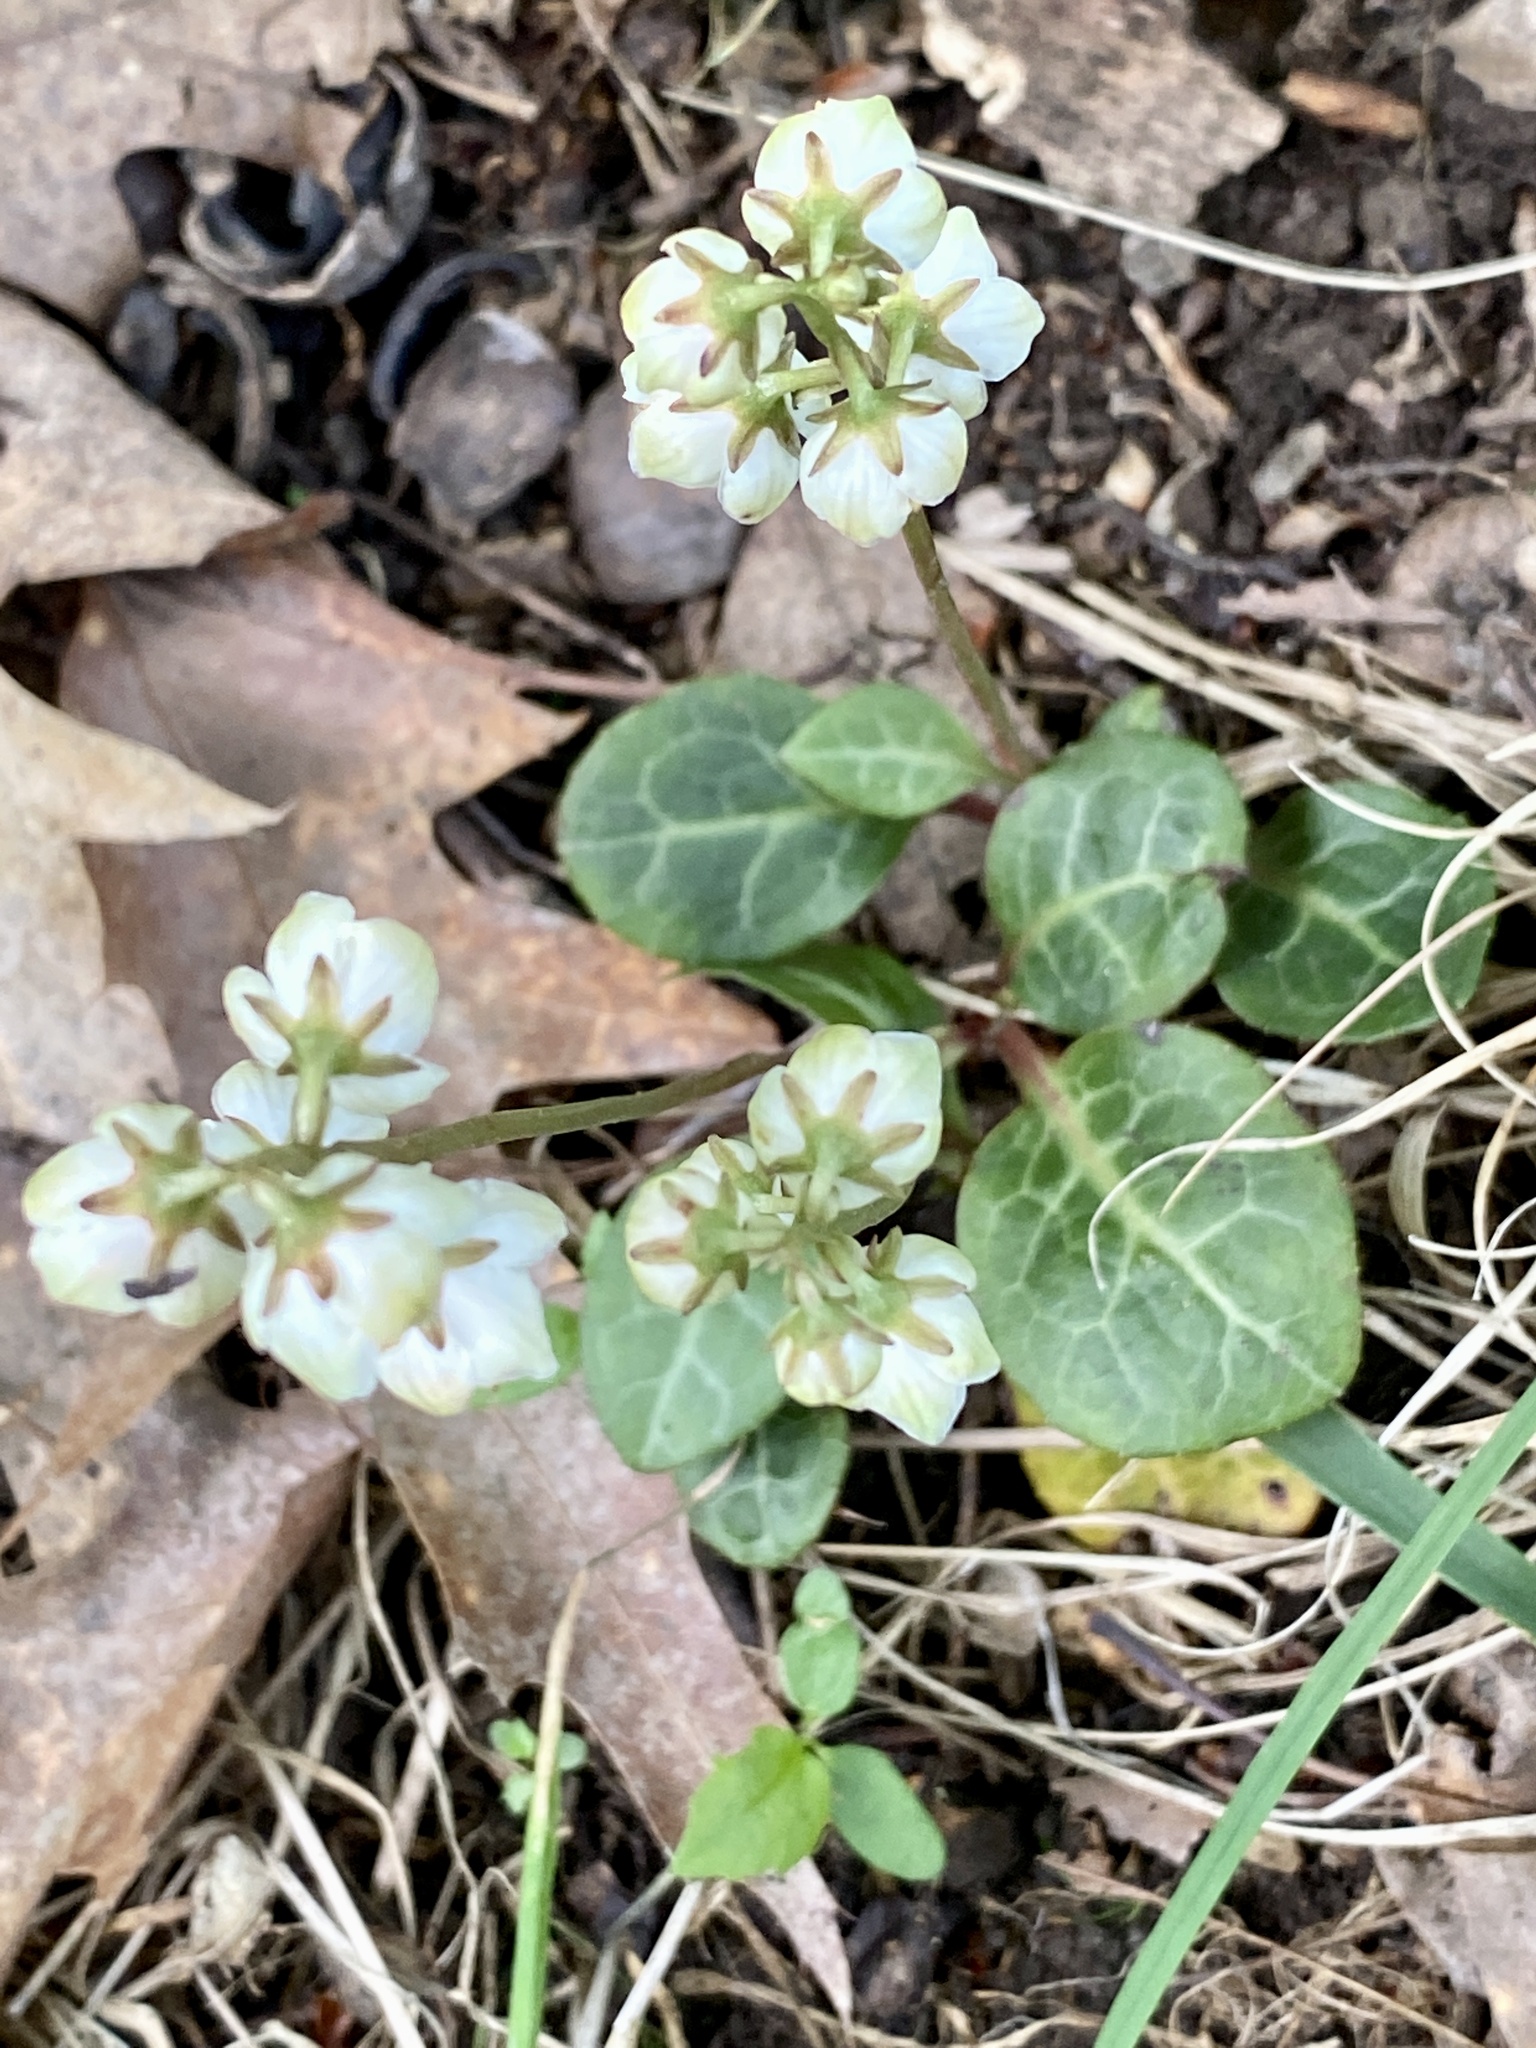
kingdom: Plantae
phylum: Tracheophyta
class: Magnoliopsida
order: Ericales
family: Ericaceae
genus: Pyrola
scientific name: Pyrola americana
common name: American wintergreen
